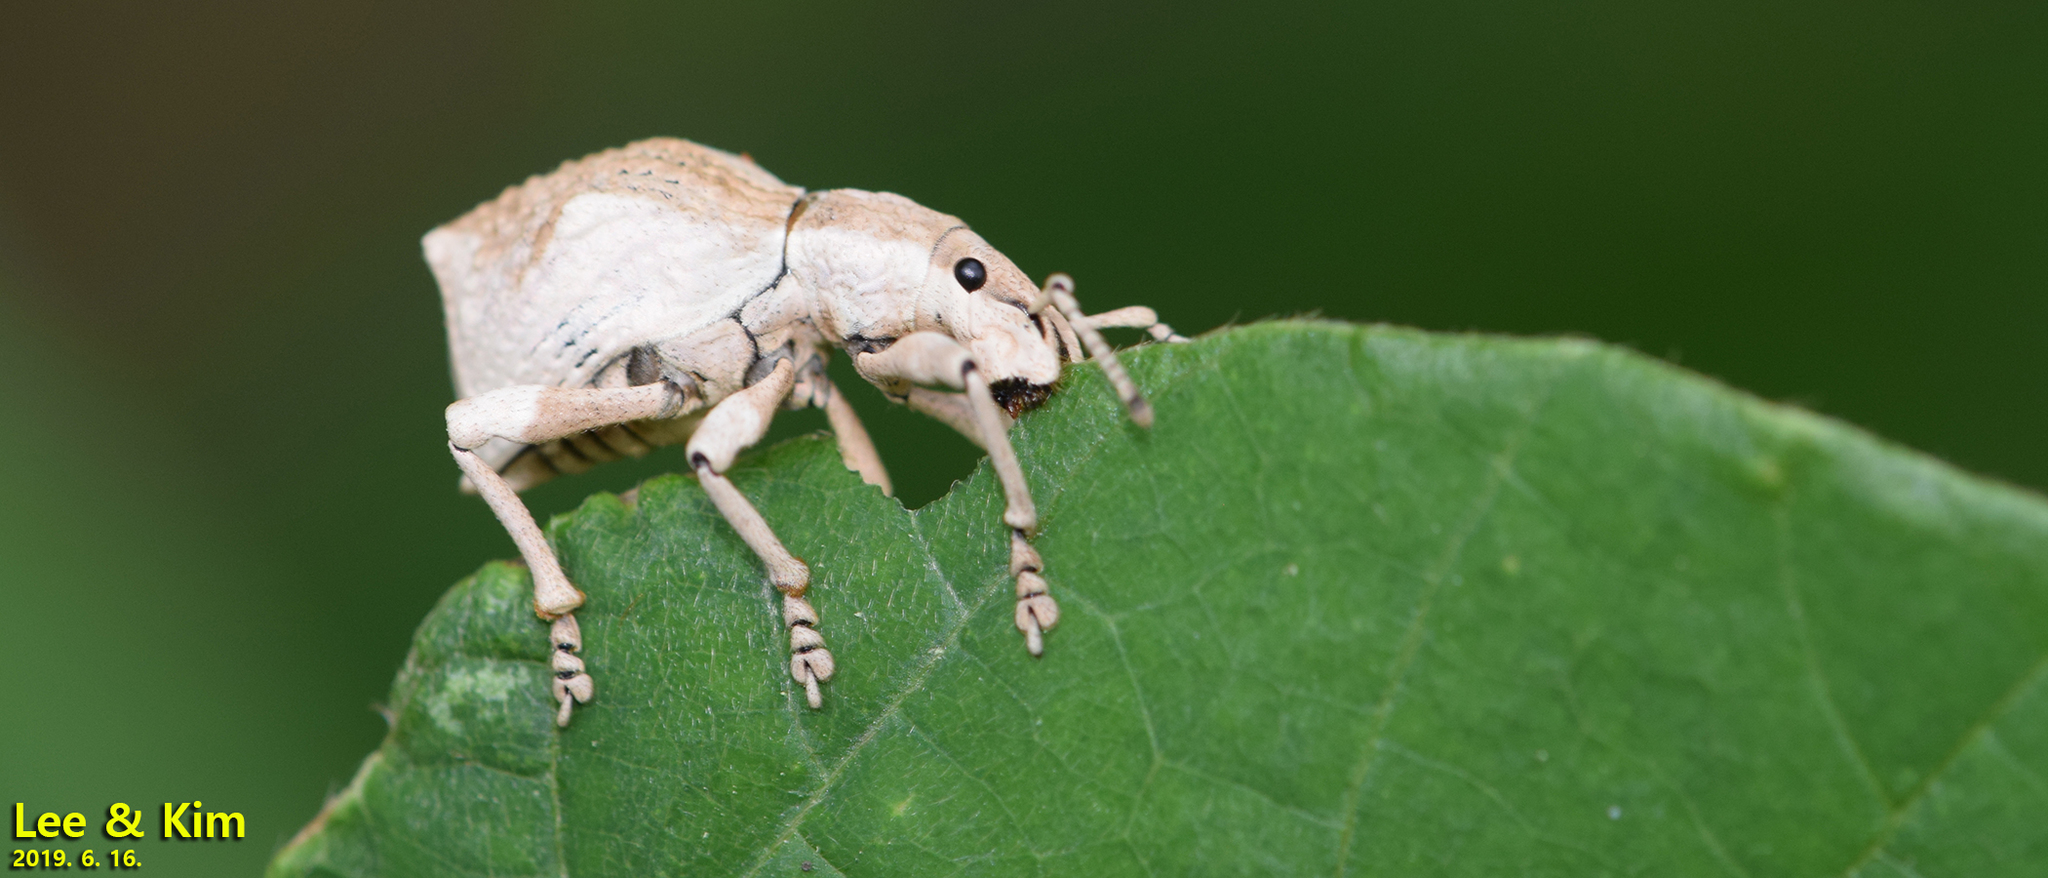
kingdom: Animalia
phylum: Arthropoda
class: Insecta
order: Coleoptera
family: Curculionidae
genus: Episomus
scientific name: Episomus turritus
